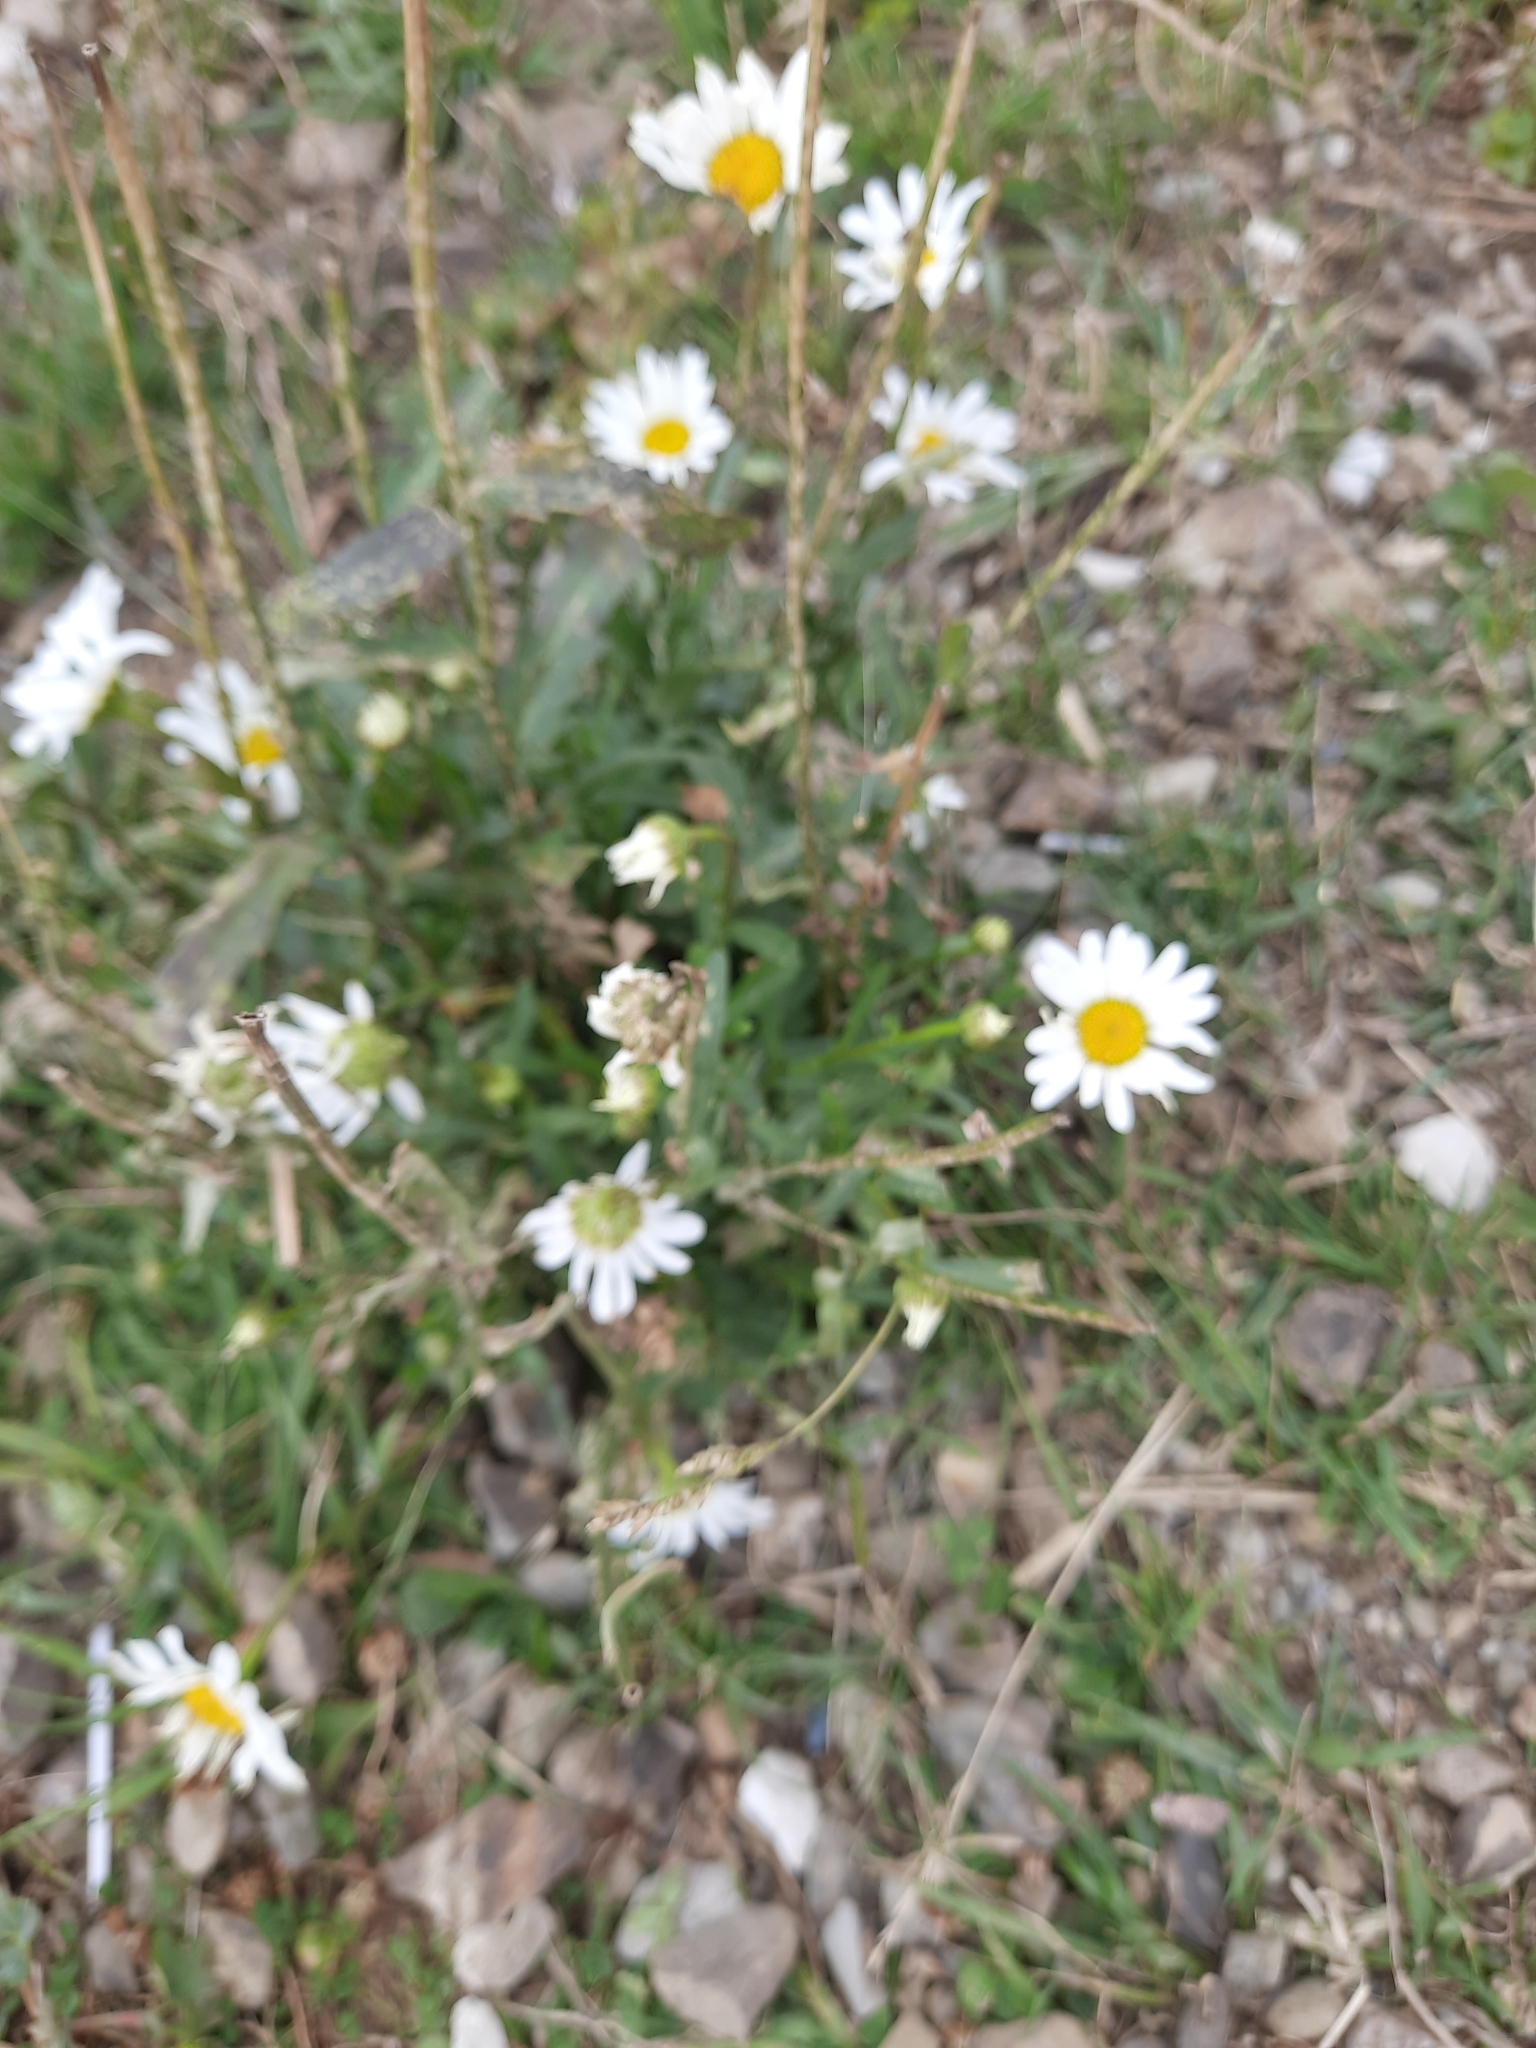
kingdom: Plantae
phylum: Tracheophyta
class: Magnoliopsida
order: Asterales
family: Asteraceae
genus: Tripleurospermum
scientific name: Tripleurospermum inodorum
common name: Scentless mayweed
